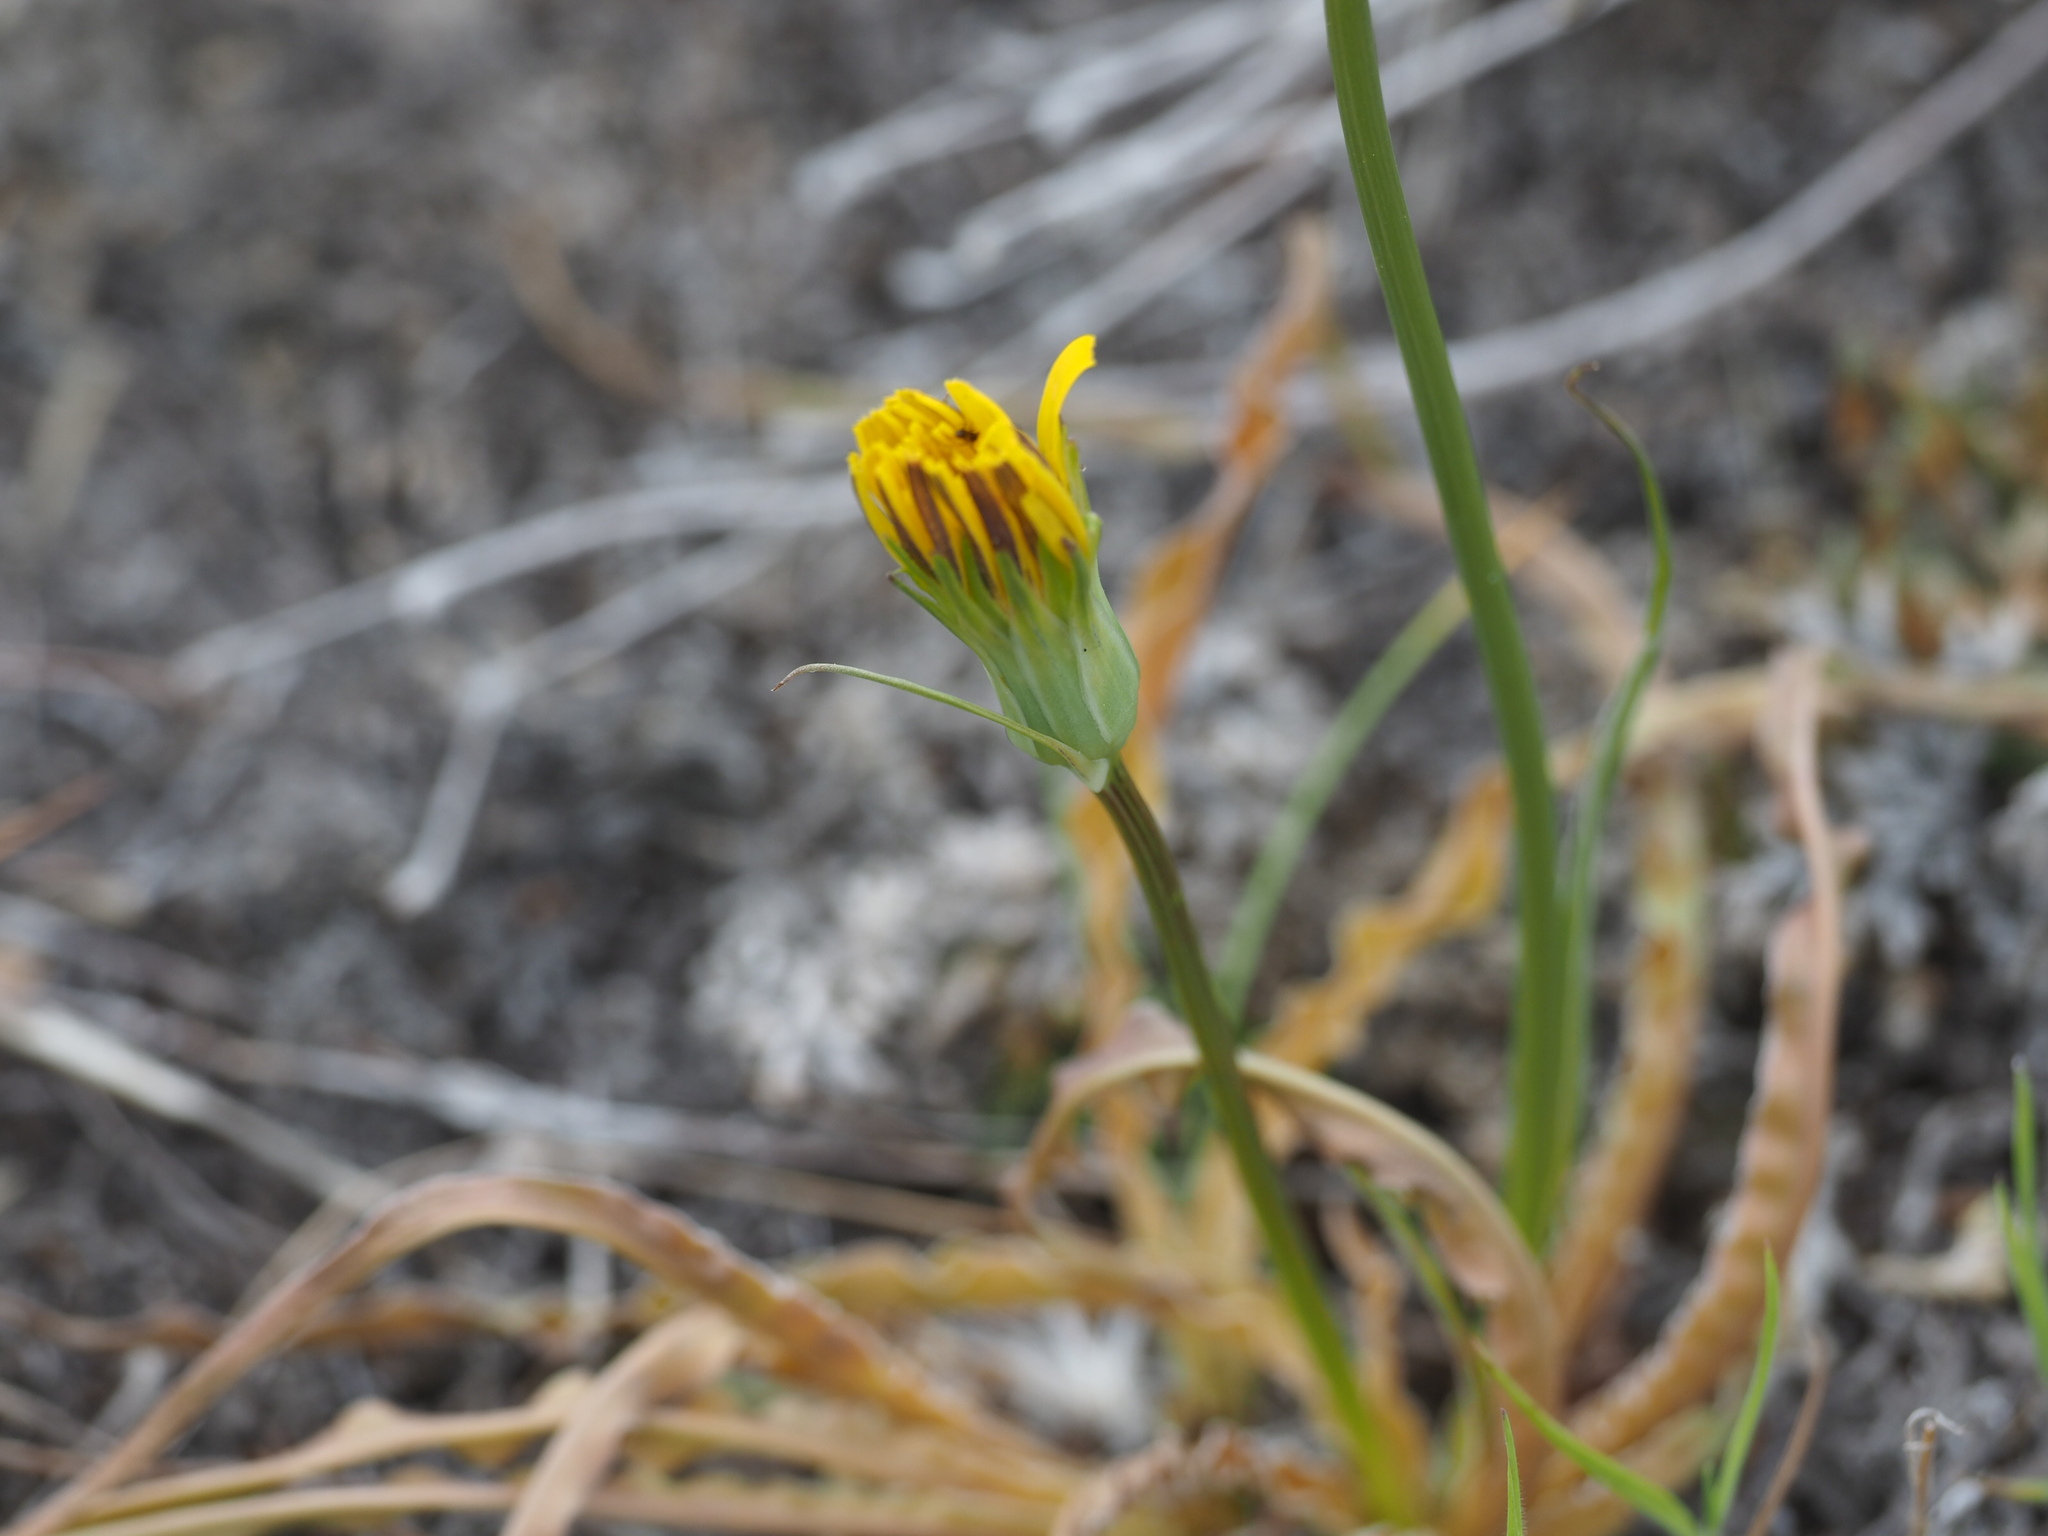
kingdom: Plantae
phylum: Tracheophyta
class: Magnoliopsida
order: Asterales
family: Asteraceae
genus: Microseris
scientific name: Microseris troximoides
